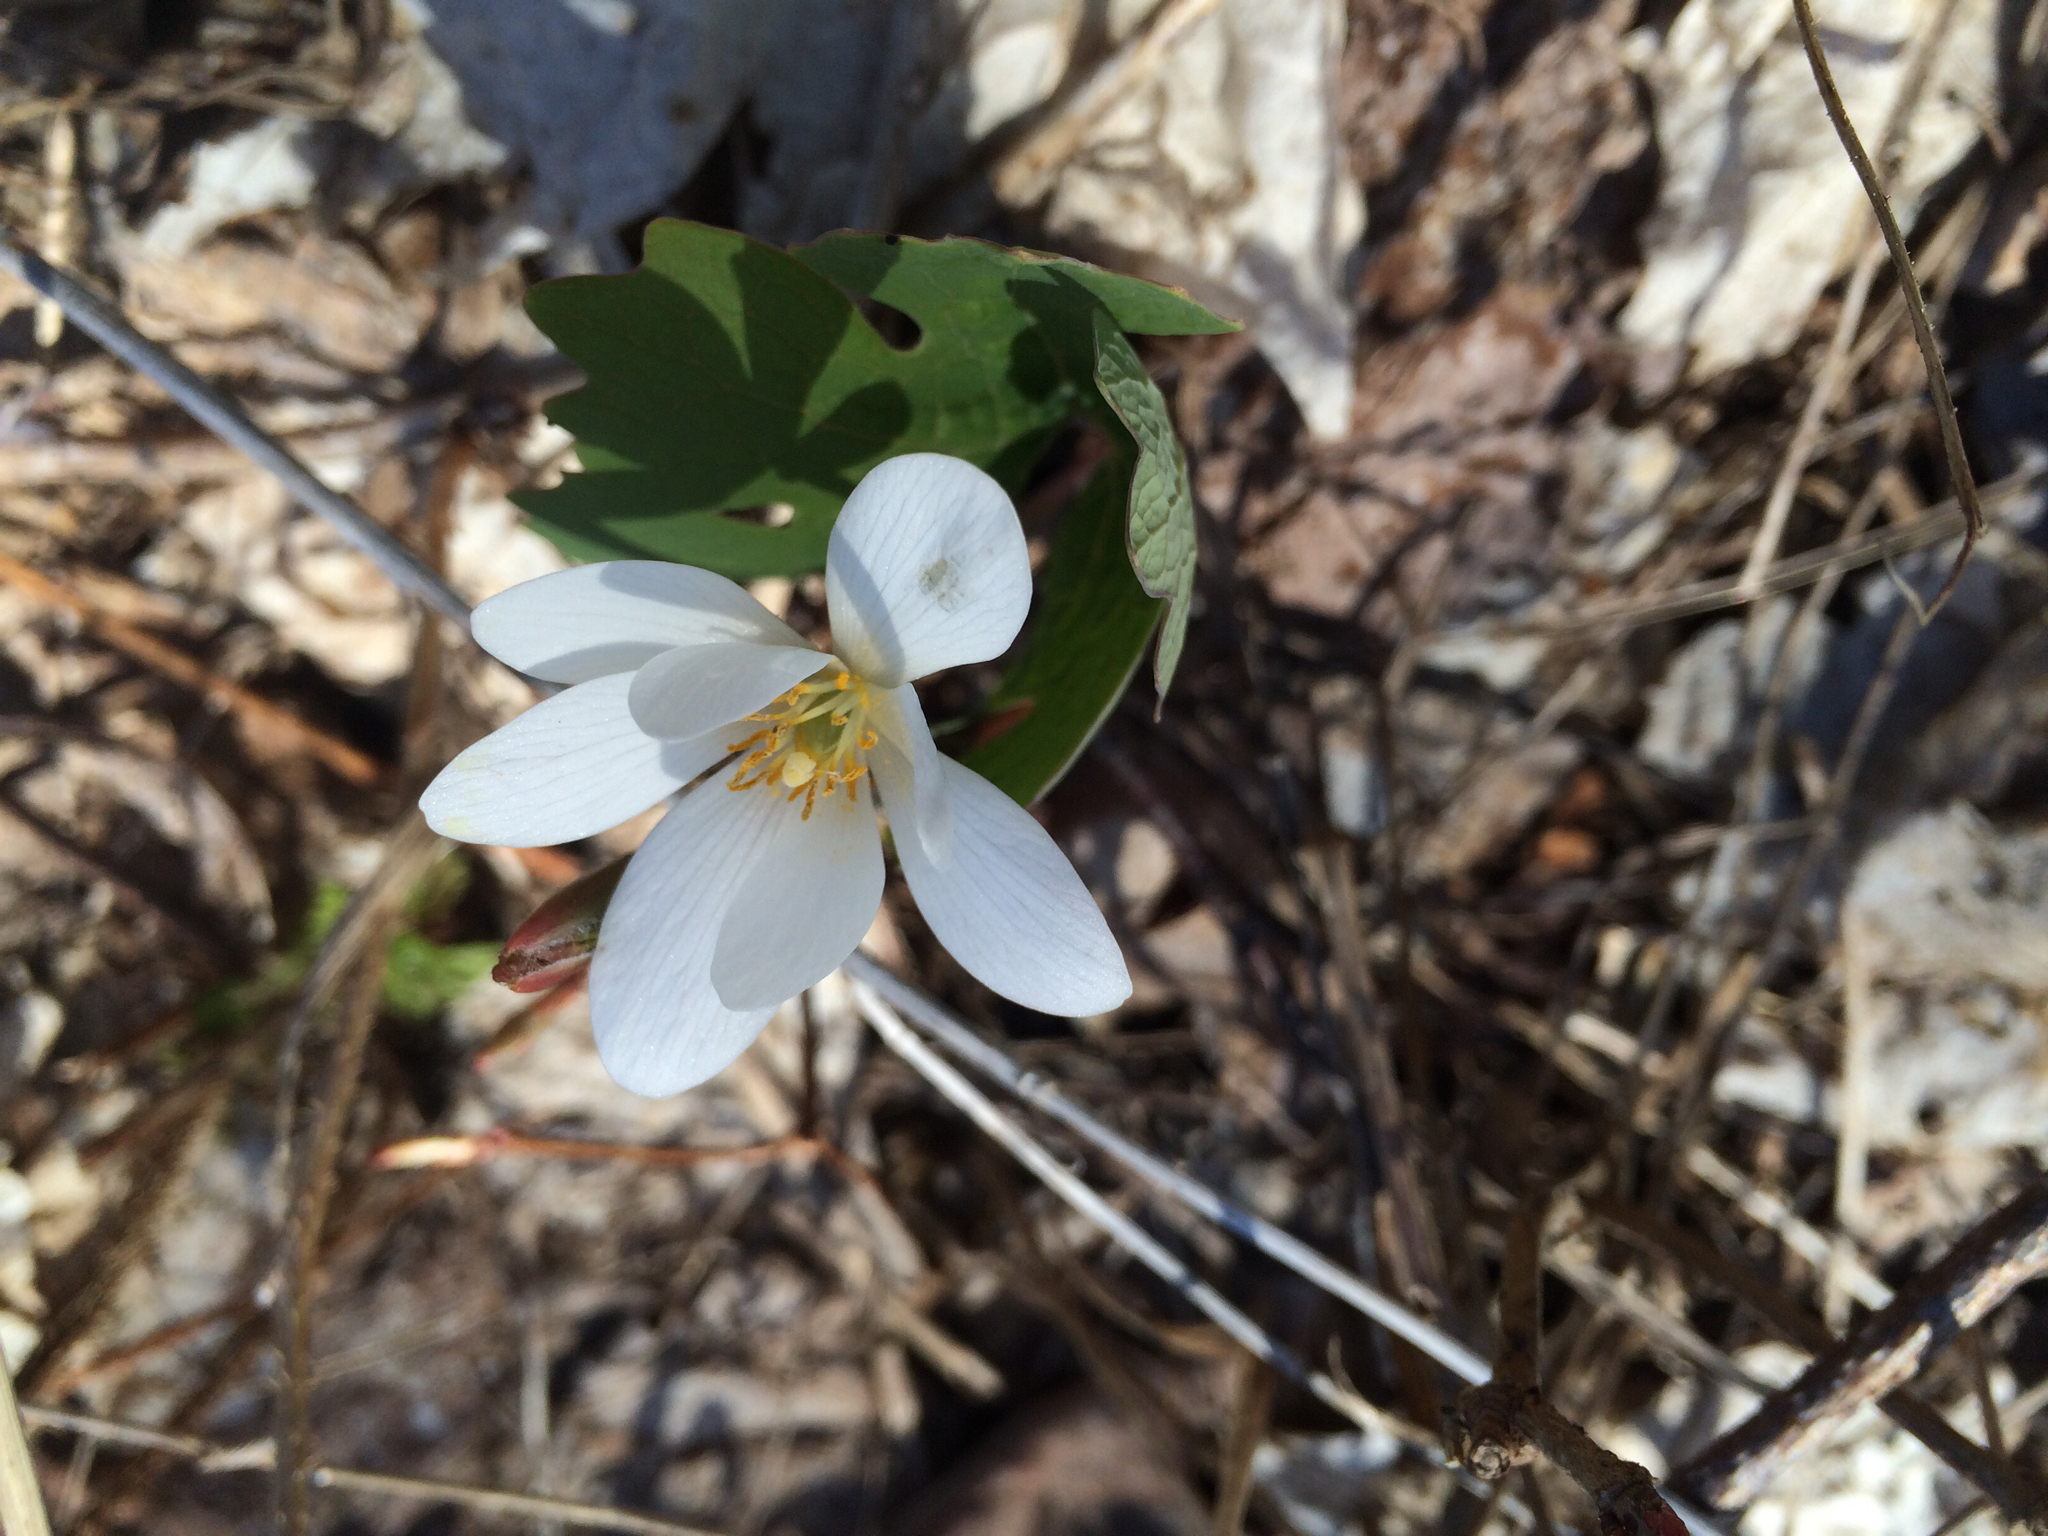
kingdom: Plantae
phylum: Tracheophyta
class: Magnoliopsida
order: Ranunculales
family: Papaveraceae
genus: Sanguinaria
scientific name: Sanguinaria canadensis
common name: Bloodroot
